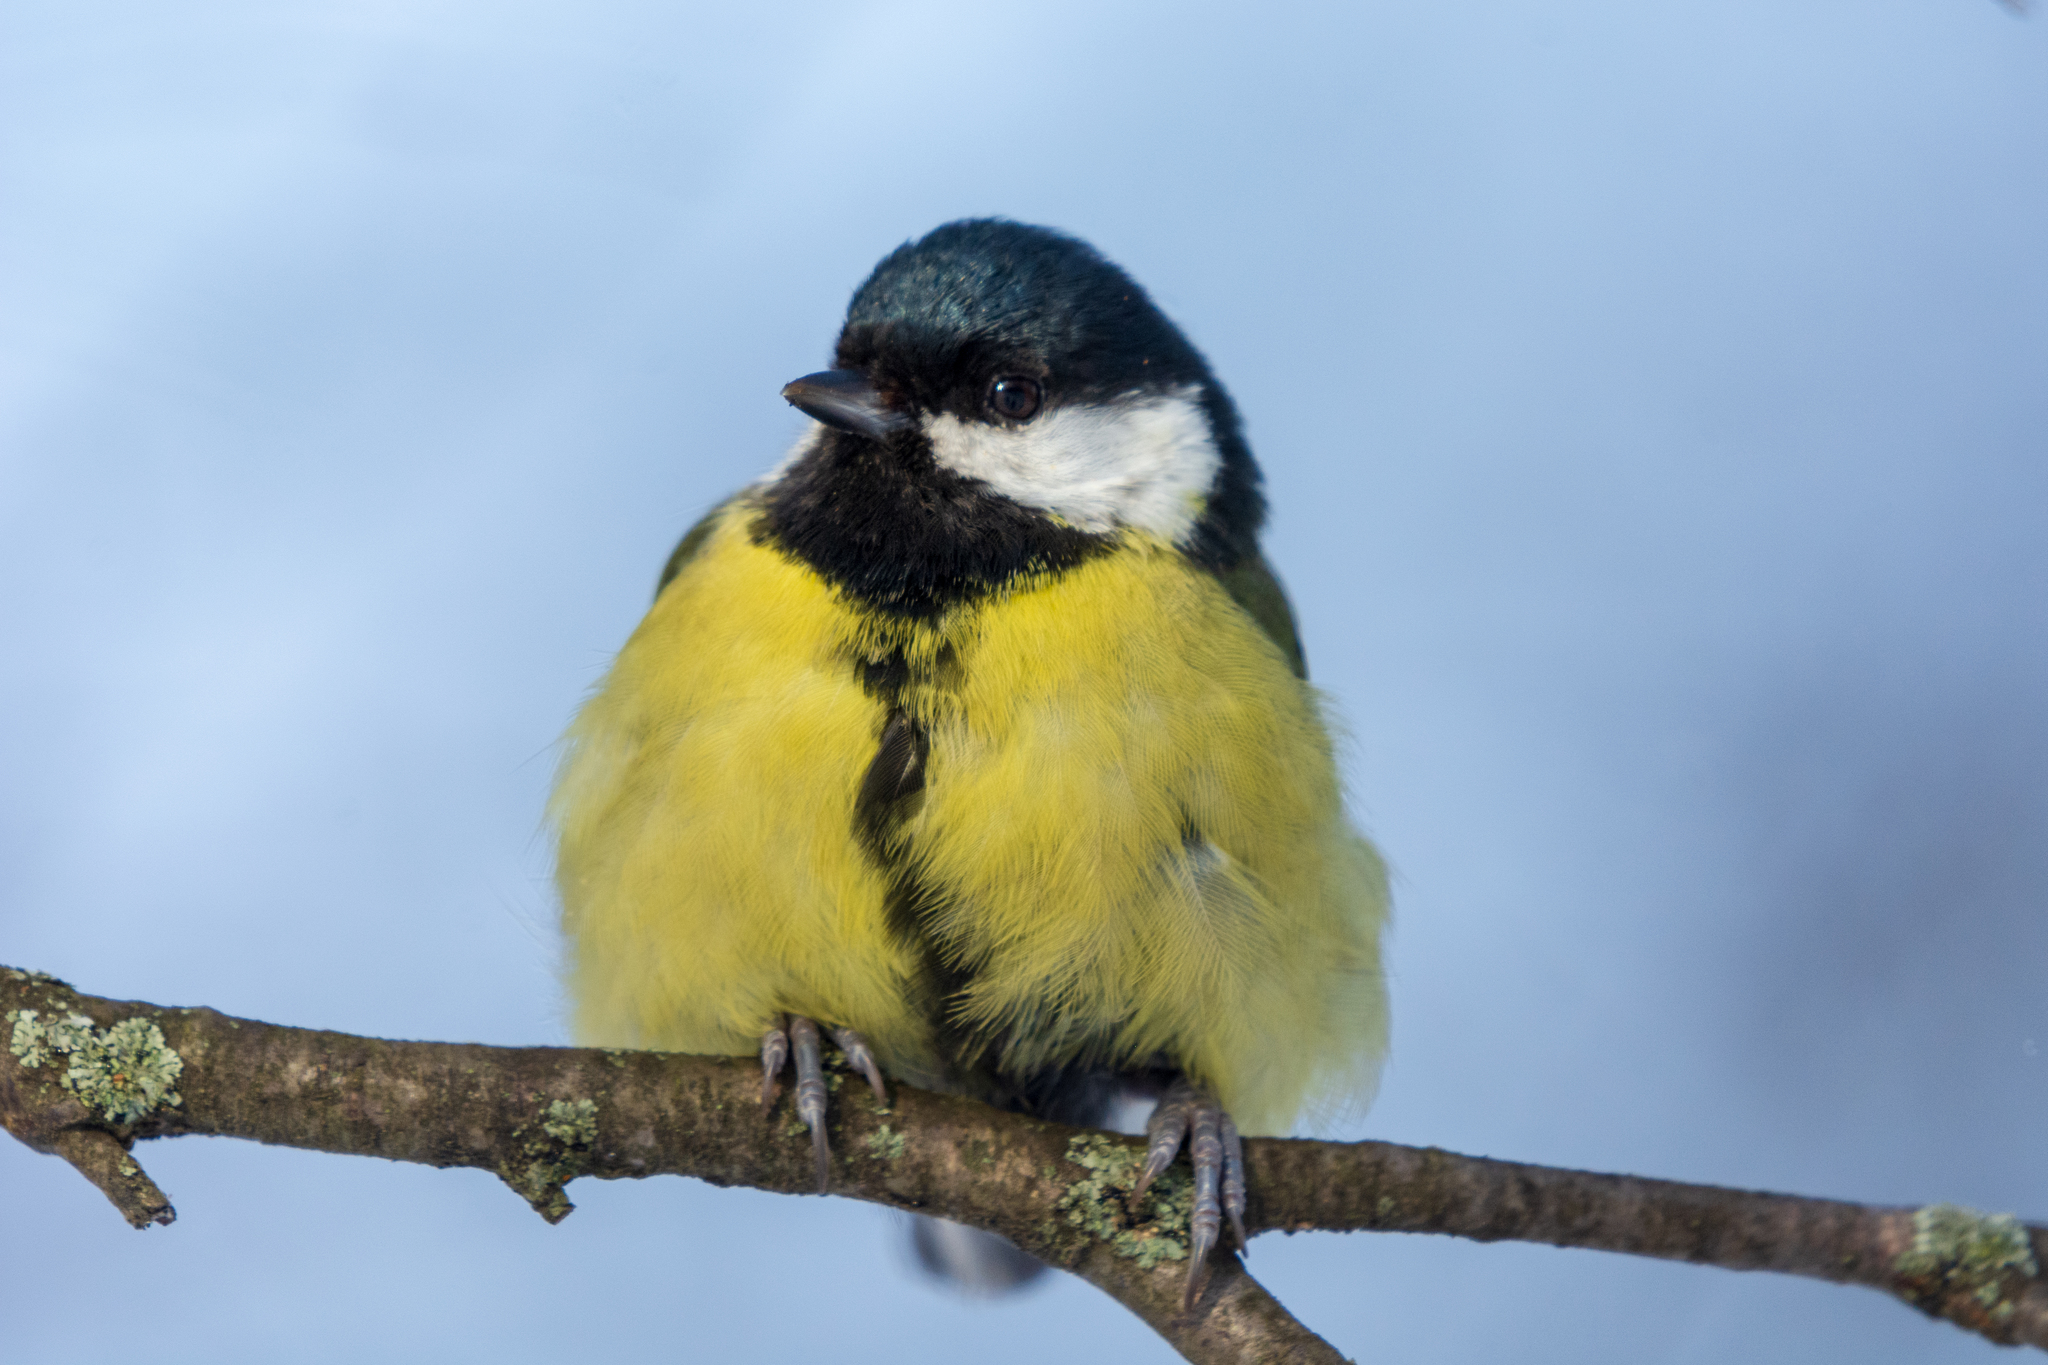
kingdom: Animalia
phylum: Chordata
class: Aves
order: Passeriformes
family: Paridae
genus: Parus
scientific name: Parus major
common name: Great tit
